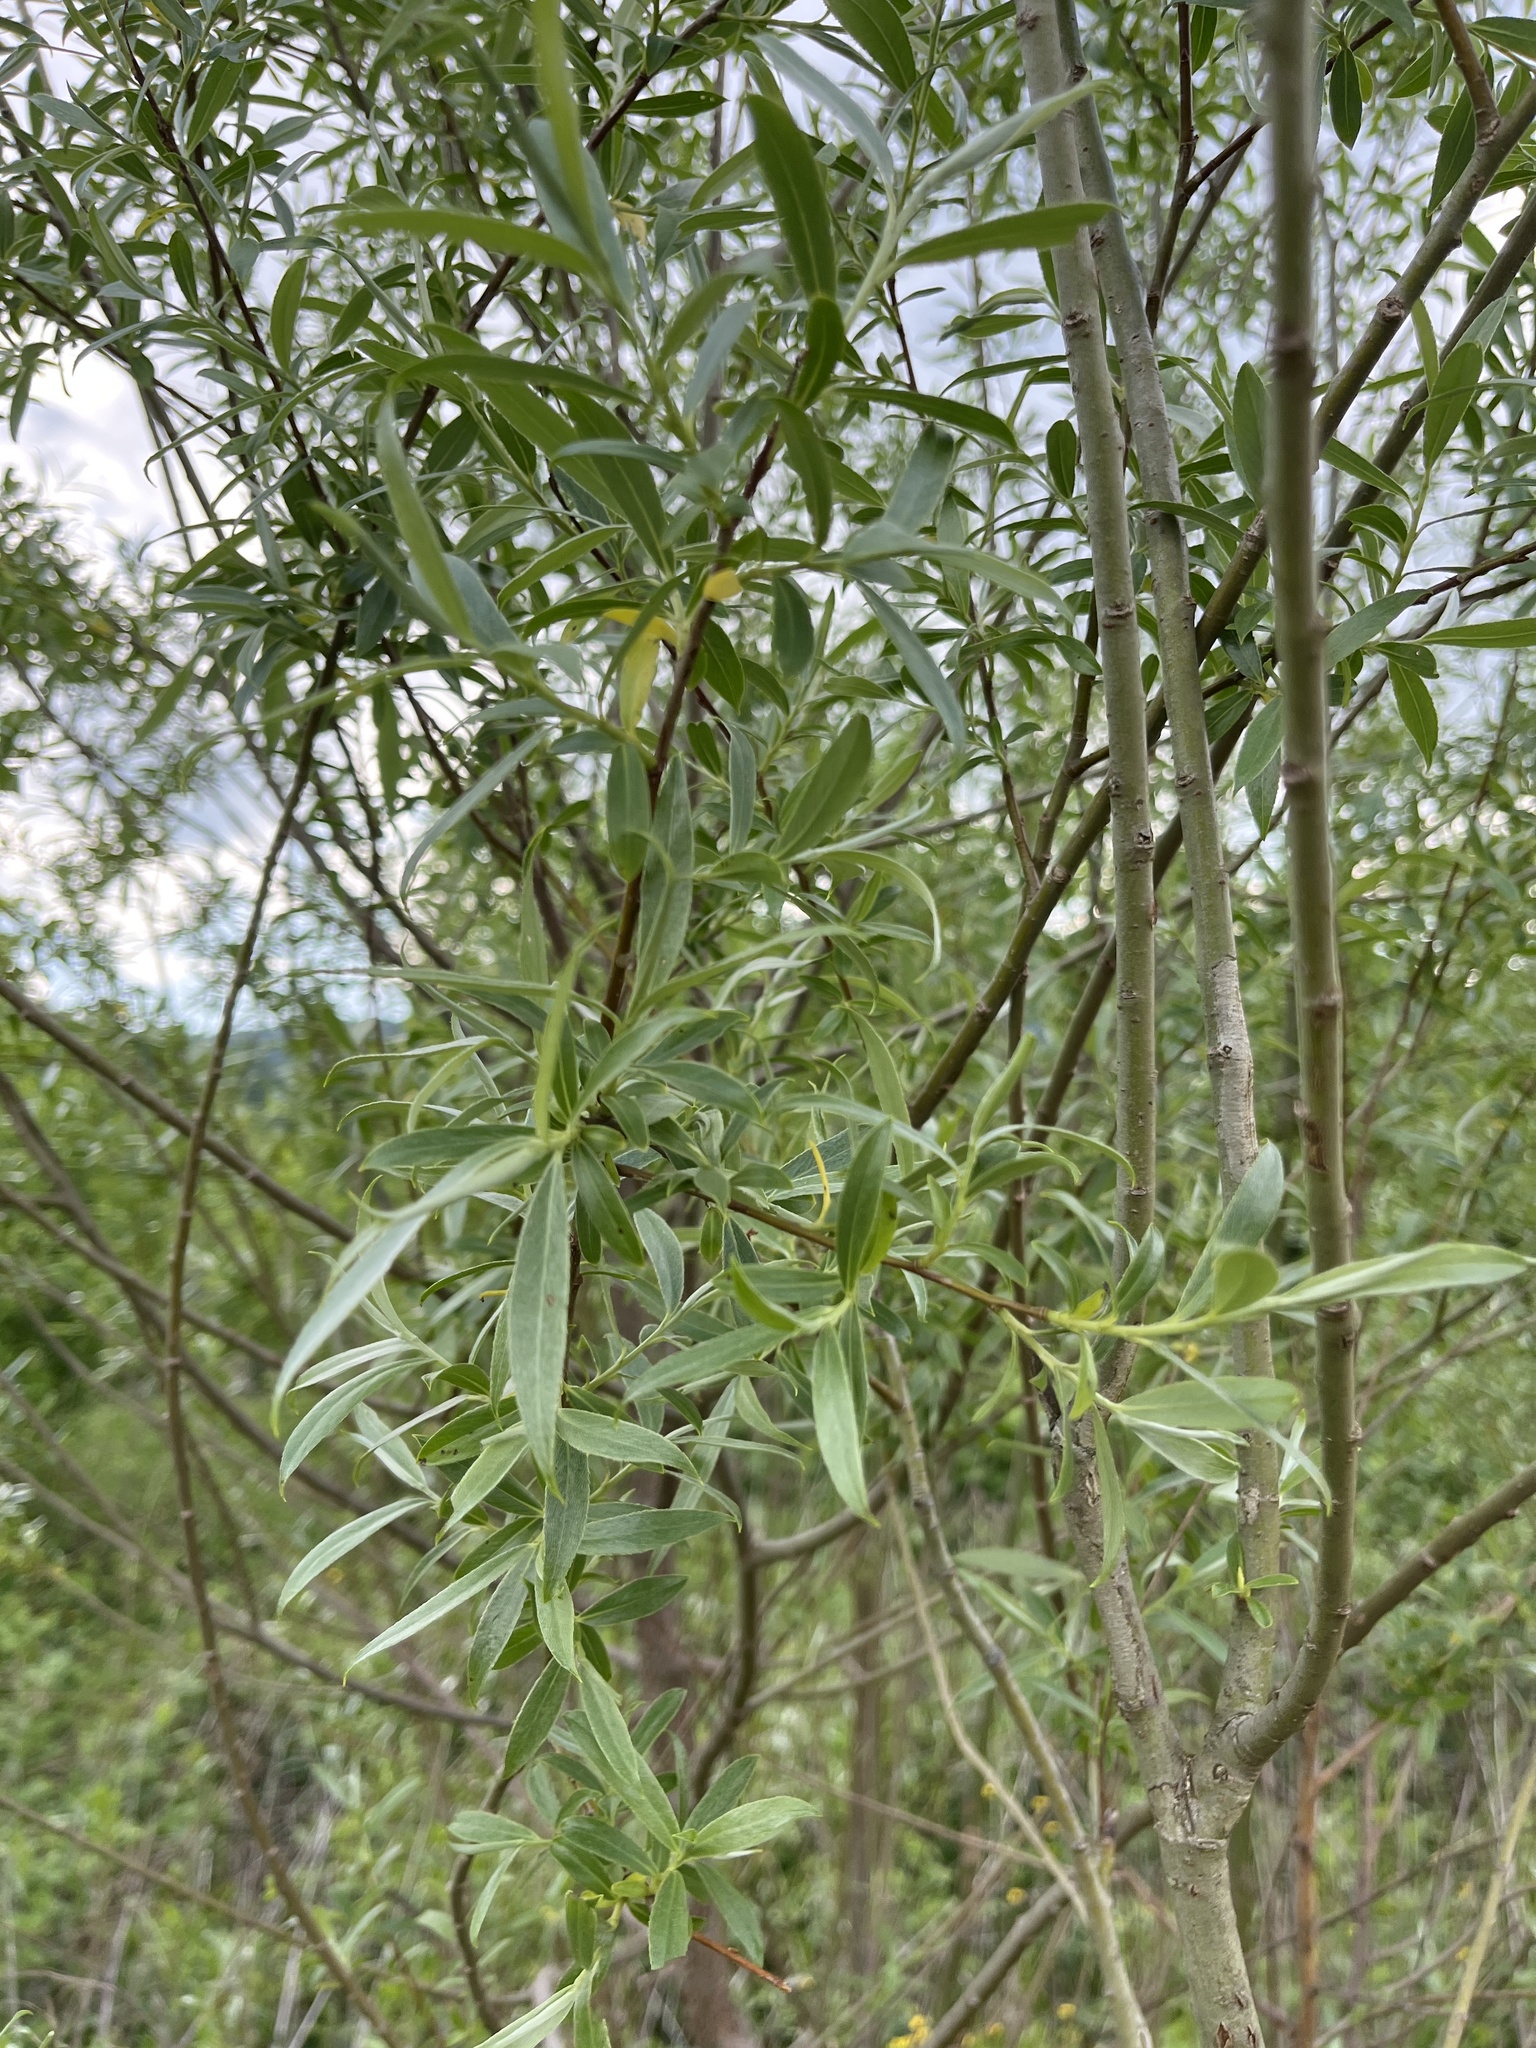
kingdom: Plantae
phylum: Tracheophyta
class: Magnoliopsida
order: Malpighiales
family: Salicaceae
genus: Salix
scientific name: Salix alba
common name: White willow
